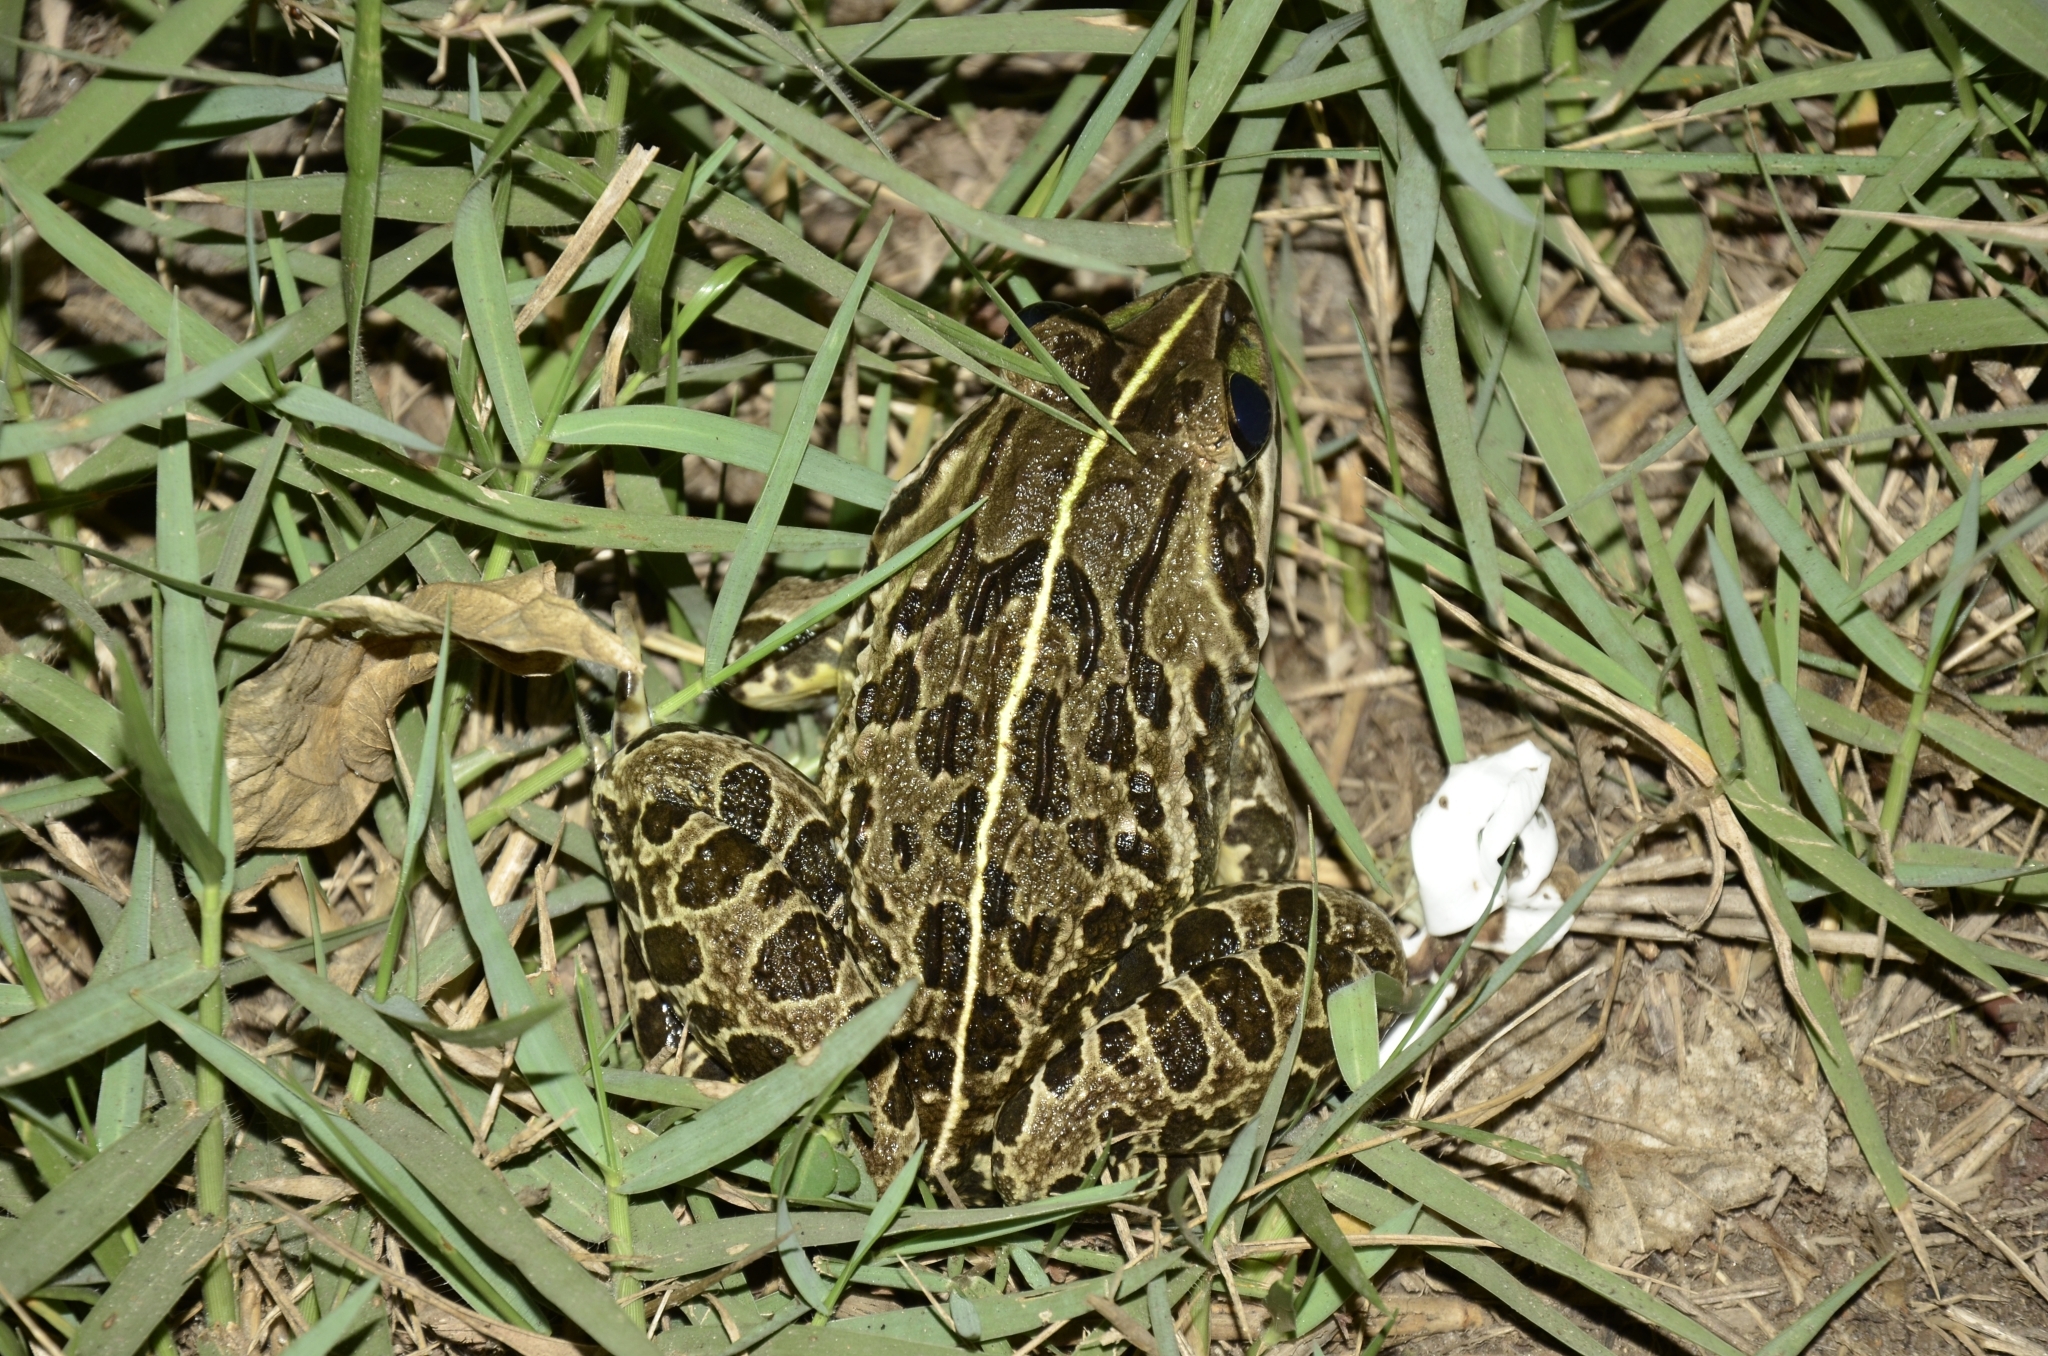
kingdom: Animalia
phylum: Chordata
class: Amphibia
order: Anura
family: Dicroglossidae
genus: Hoplobatrachus
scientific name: Hoplobatrachus tigerinus
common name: Indian bullfrog
